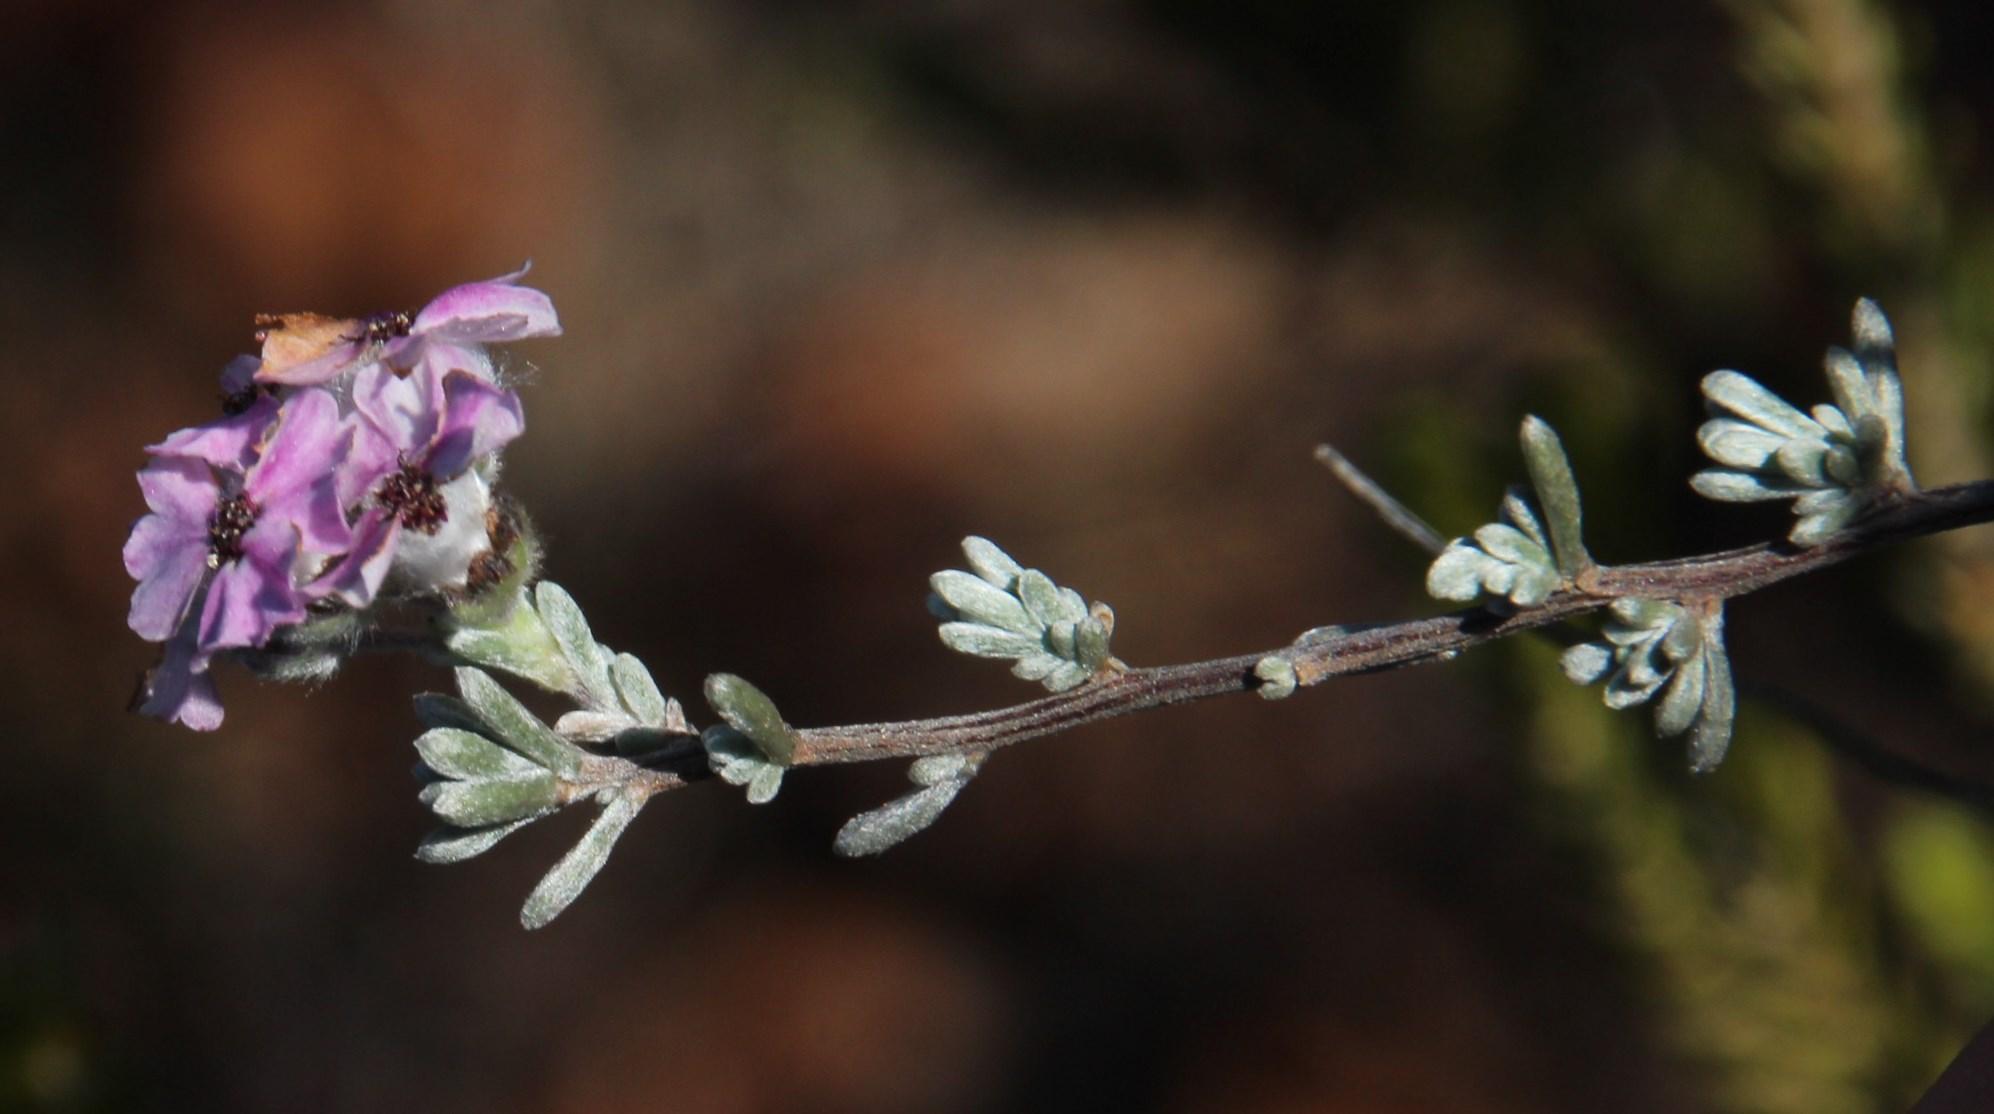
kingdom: Plantae
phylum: Tracheophyta
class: Magnoliopsida
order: Asterales
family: Asteraceae
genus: Eriocephalus
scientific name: Eriocephalus africanus
